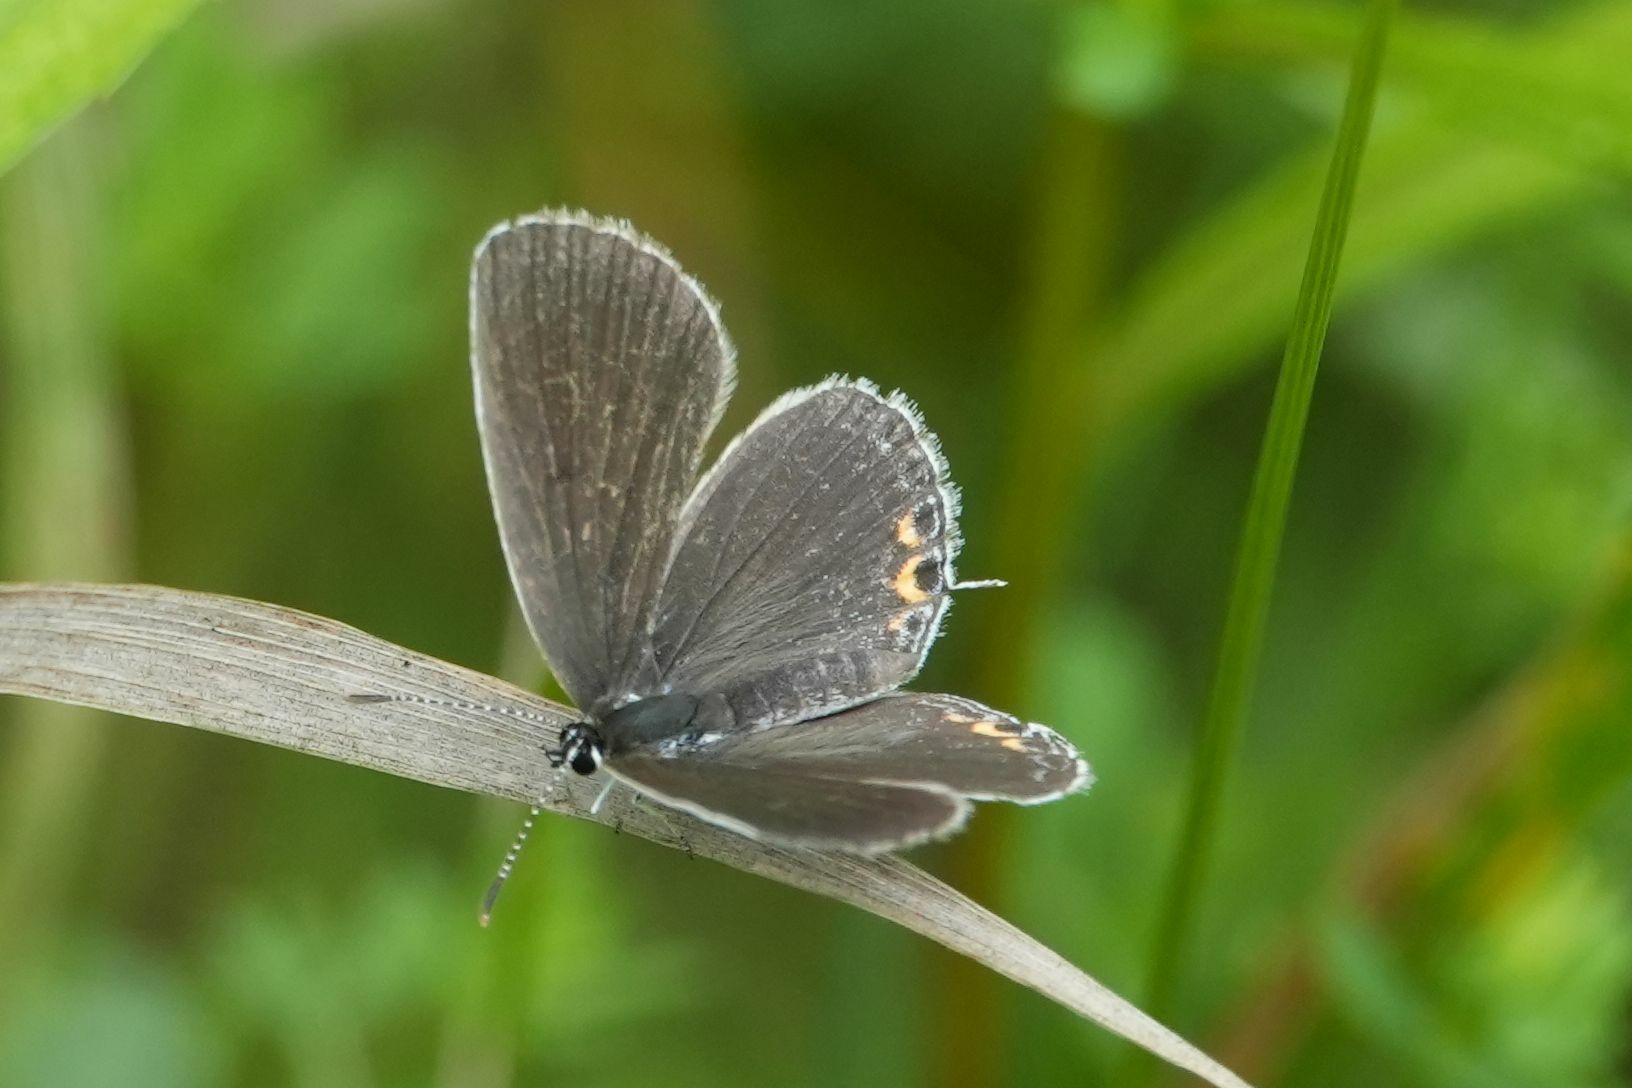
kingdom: Animalia
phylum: Arthropoda
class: Insecta
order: Lepidoptera
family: Lycaenidae
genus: Elkalyce
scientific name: Elkalyce comyntas
